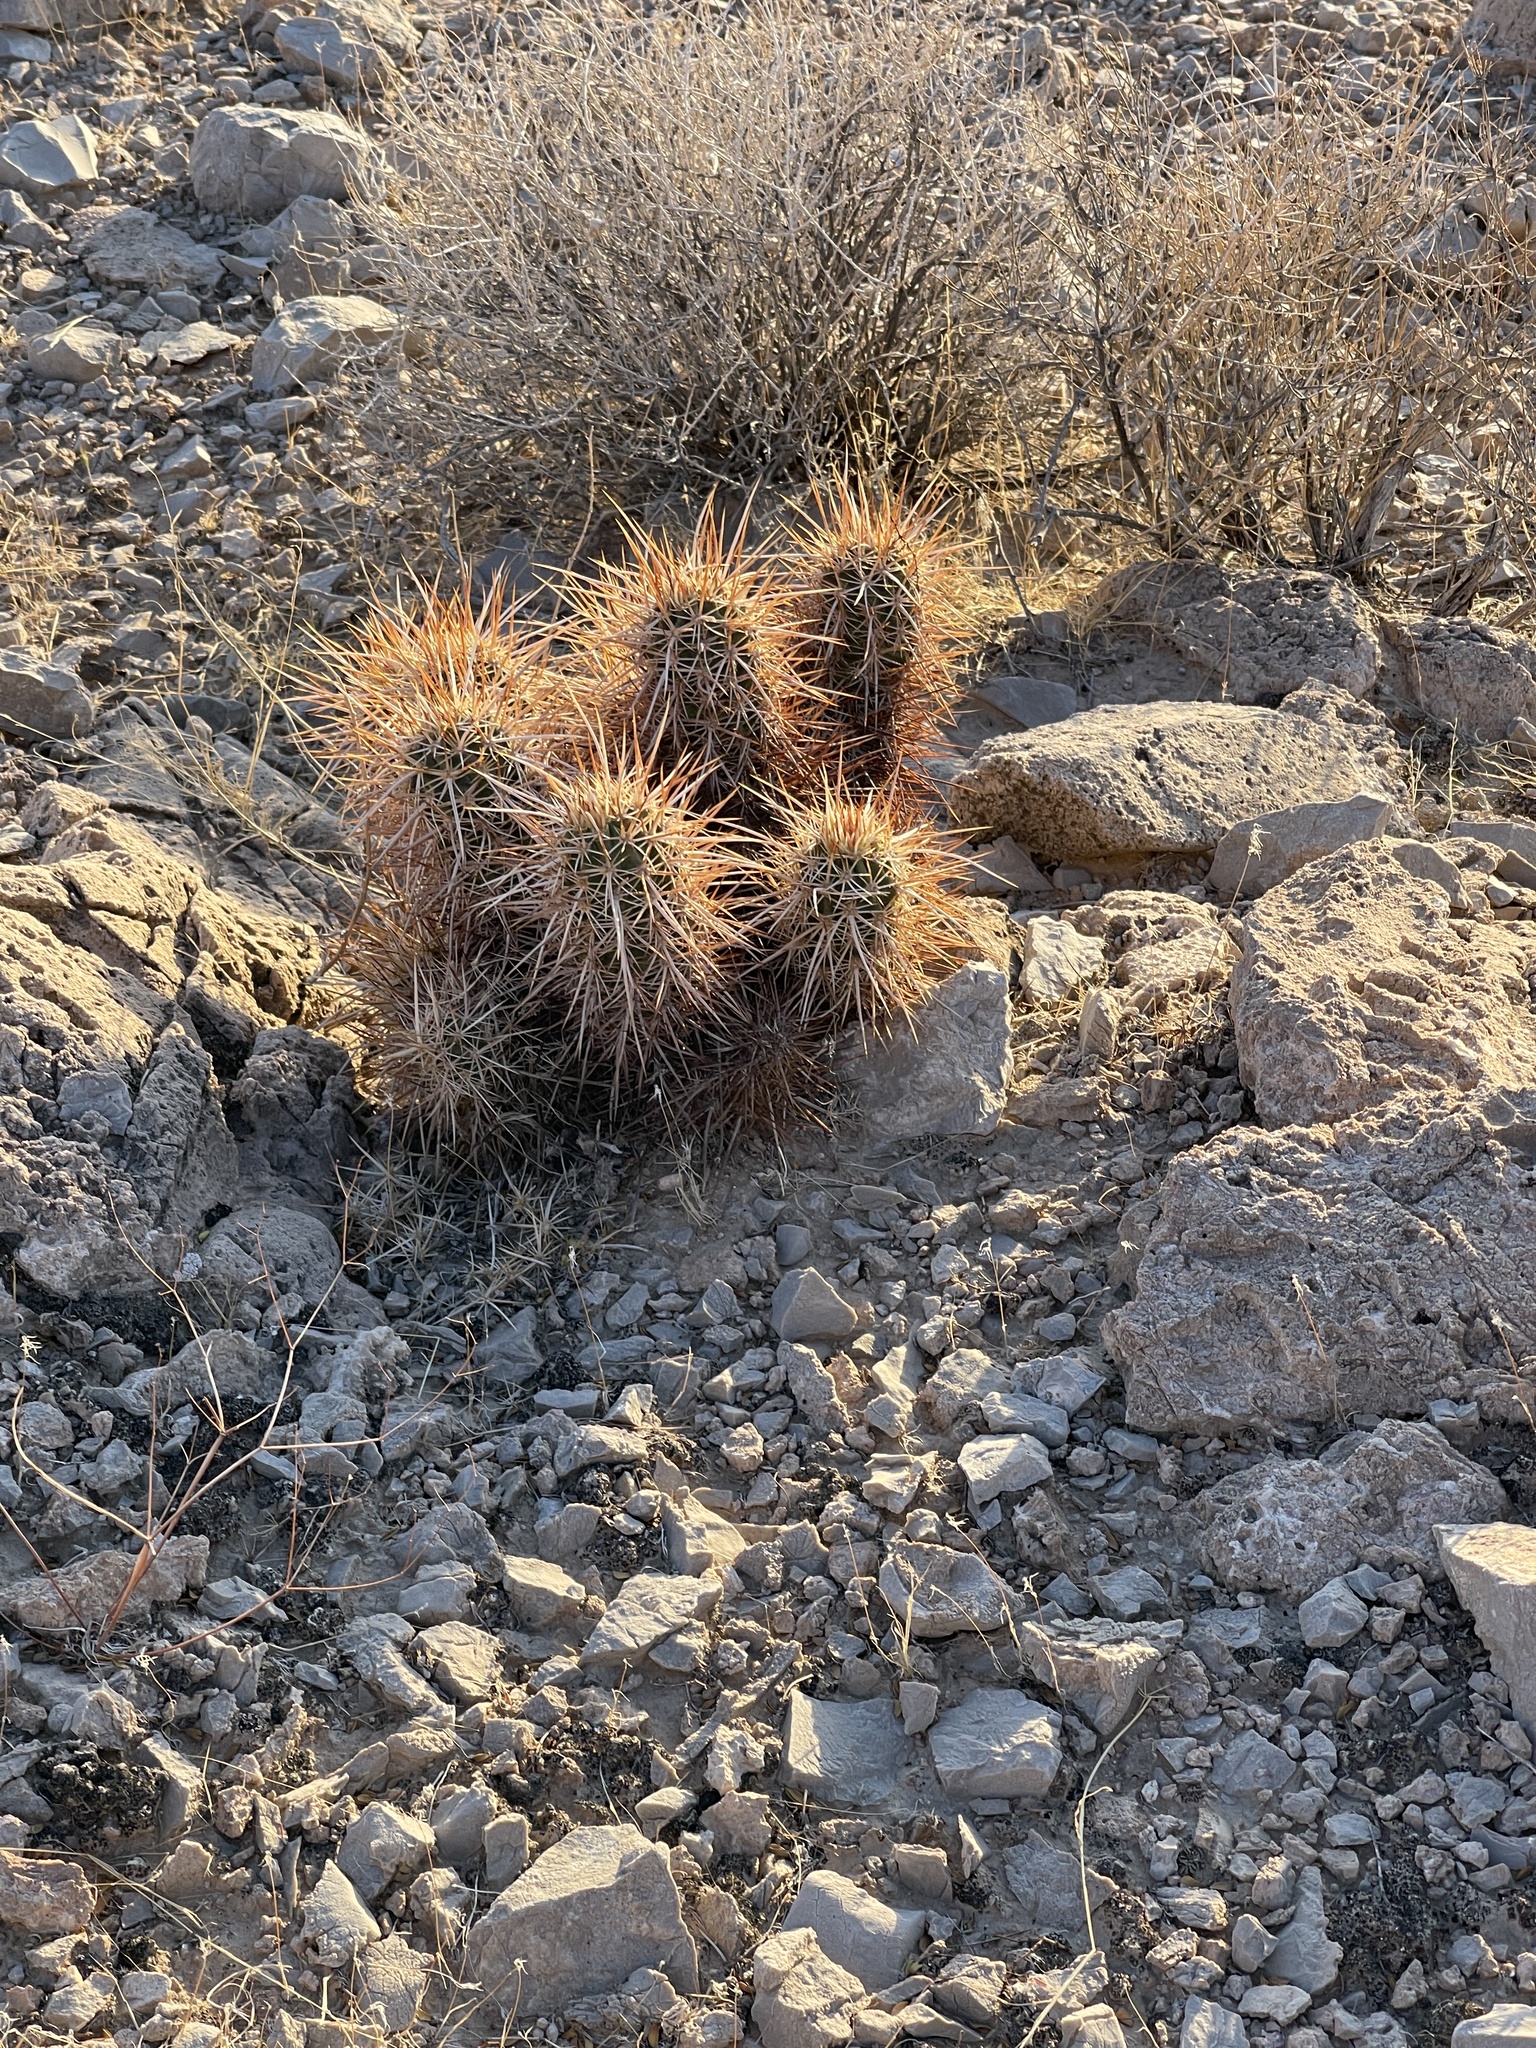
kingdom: Plantae
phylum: Tracheophyta
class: Magnoliopsida
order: Caryophyllales
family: Cactaceae
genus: Echinocereus
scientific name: Echinocereus engelmannii
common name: Engelmann's hedgehog cactus
